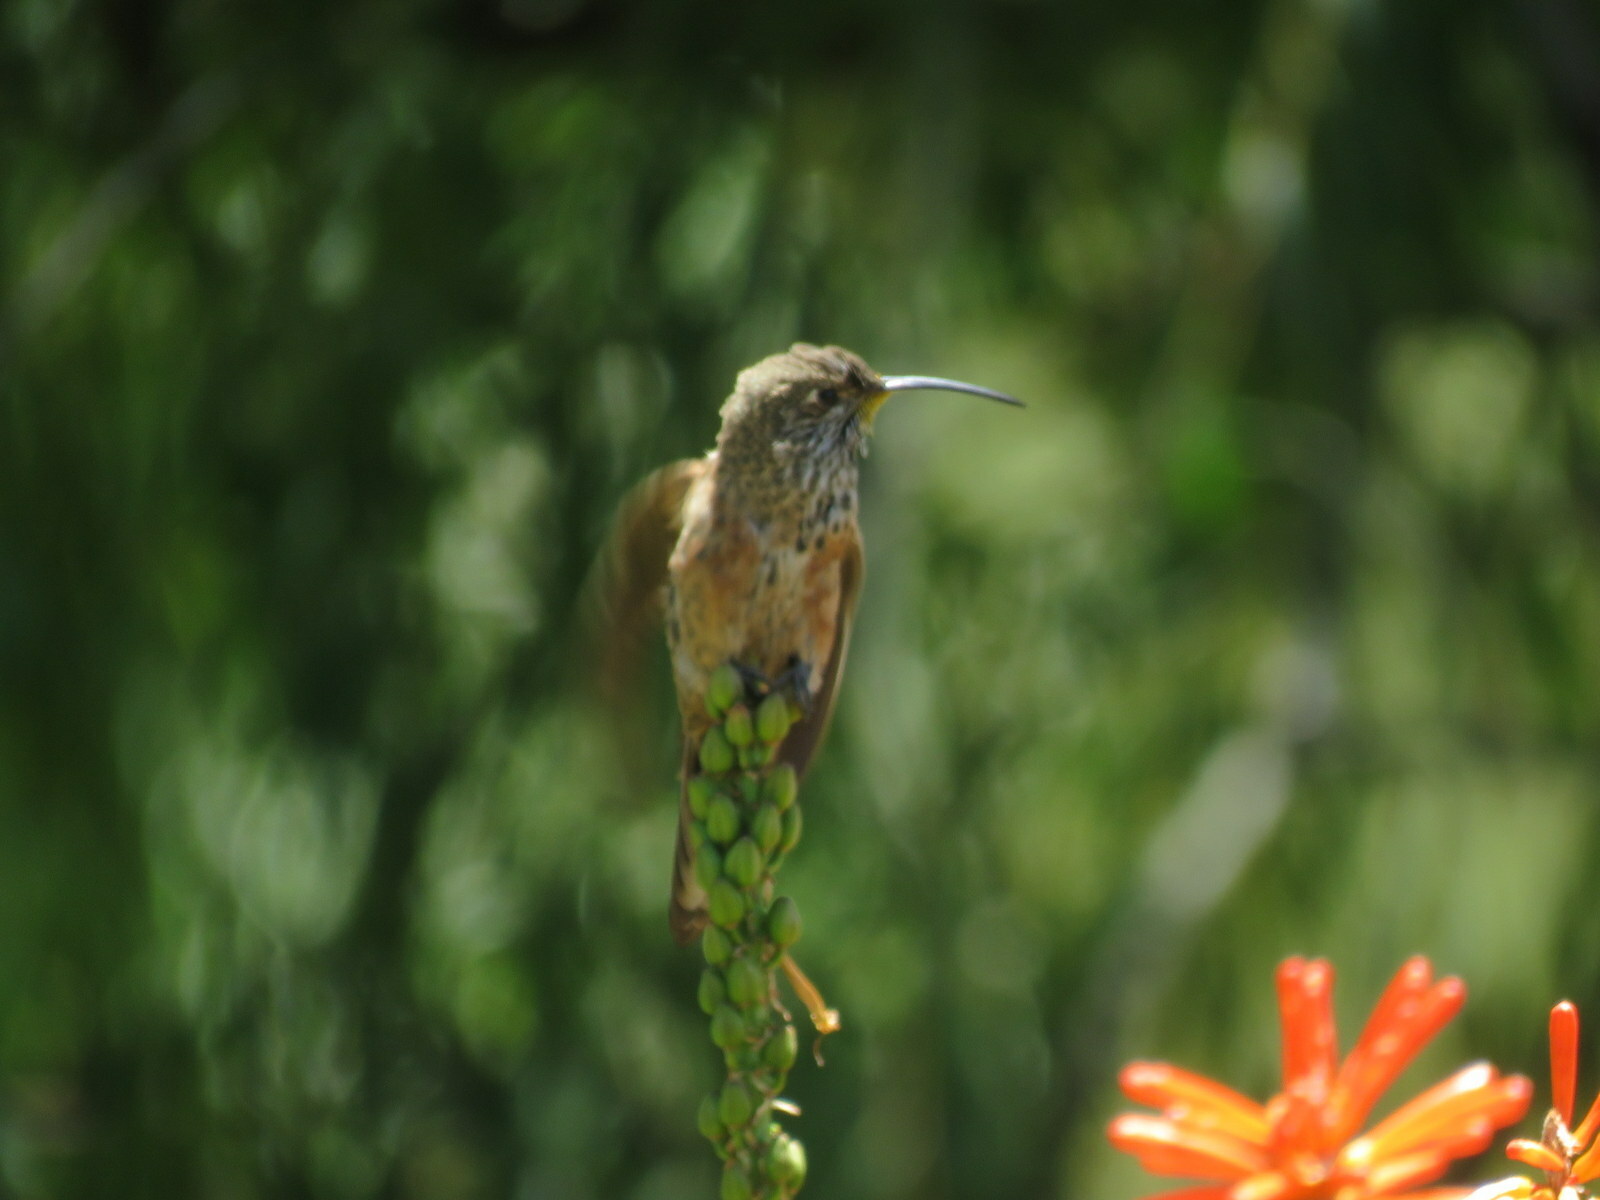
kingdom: Animalia
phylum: Chordata
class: Aves
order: Apodiformes
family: Trochilidae
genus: Oreotrochilus
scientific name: Oreotrochilus adela
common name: Wedge-tailed hillstar
